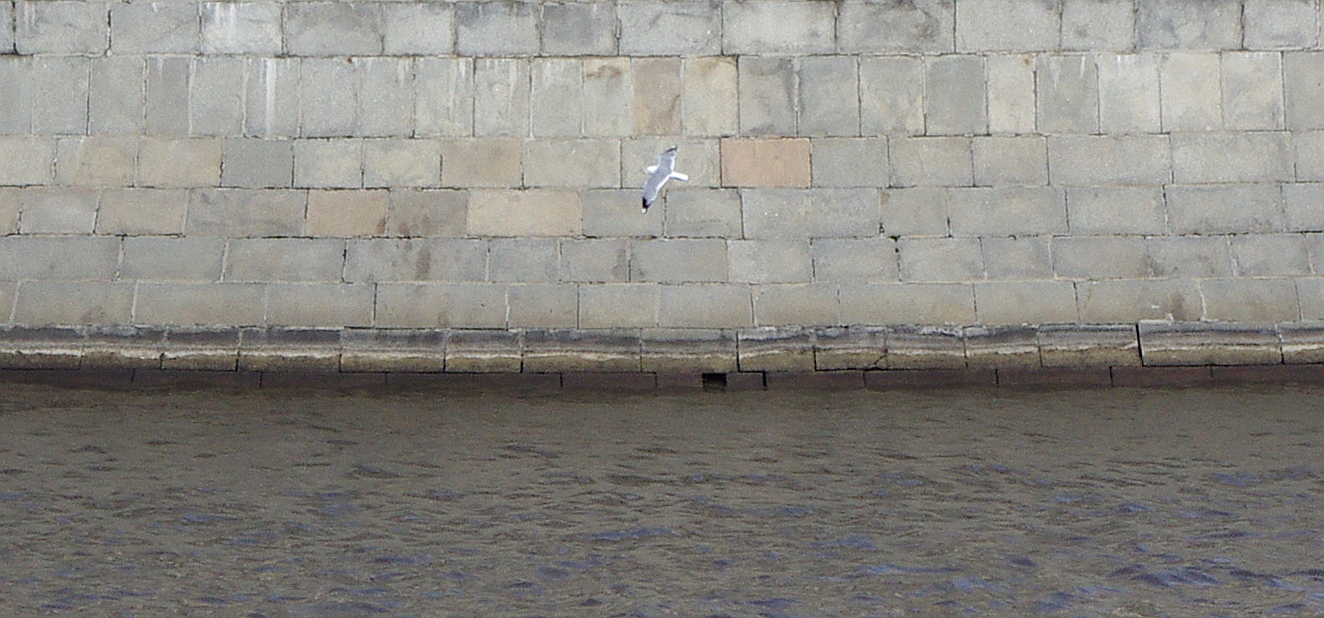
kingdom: Animalia
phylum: Chordata
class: Aves
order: Charadriiformes
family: Laridae
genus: Larus
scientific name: Larus canus
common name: Mew gull
